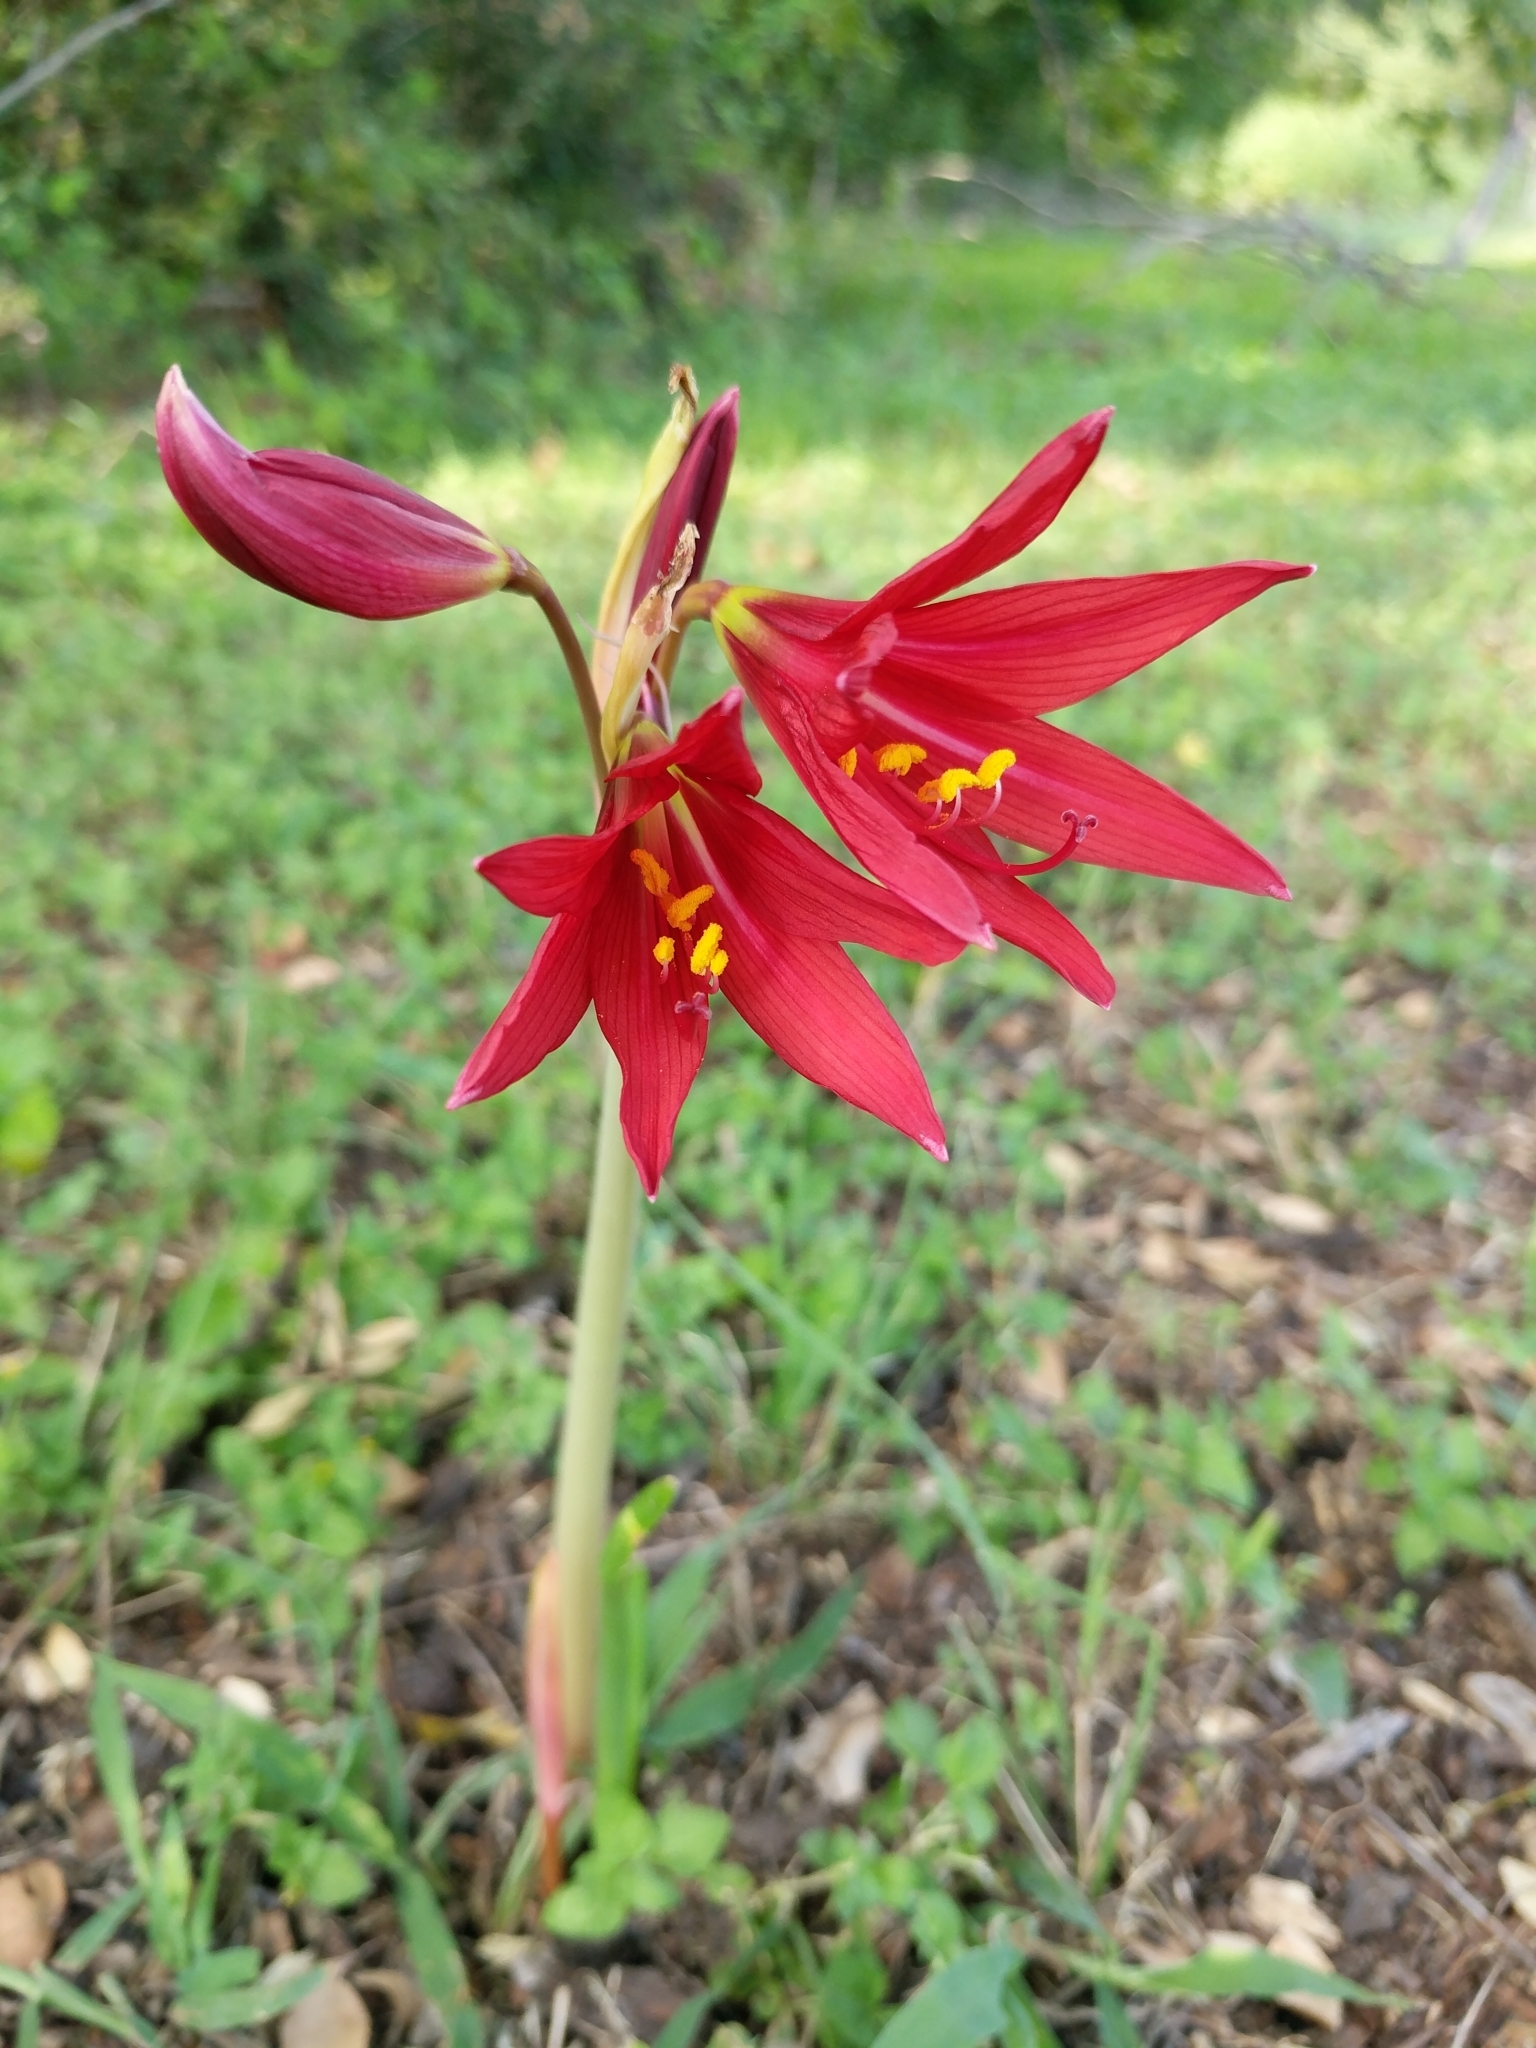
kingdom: Plantae
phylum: Tracheophyta
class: Liliopsida
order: Asparagales
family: Amaryllidaceae
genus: Zephyranthes
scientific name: Zephyranthes bifida
